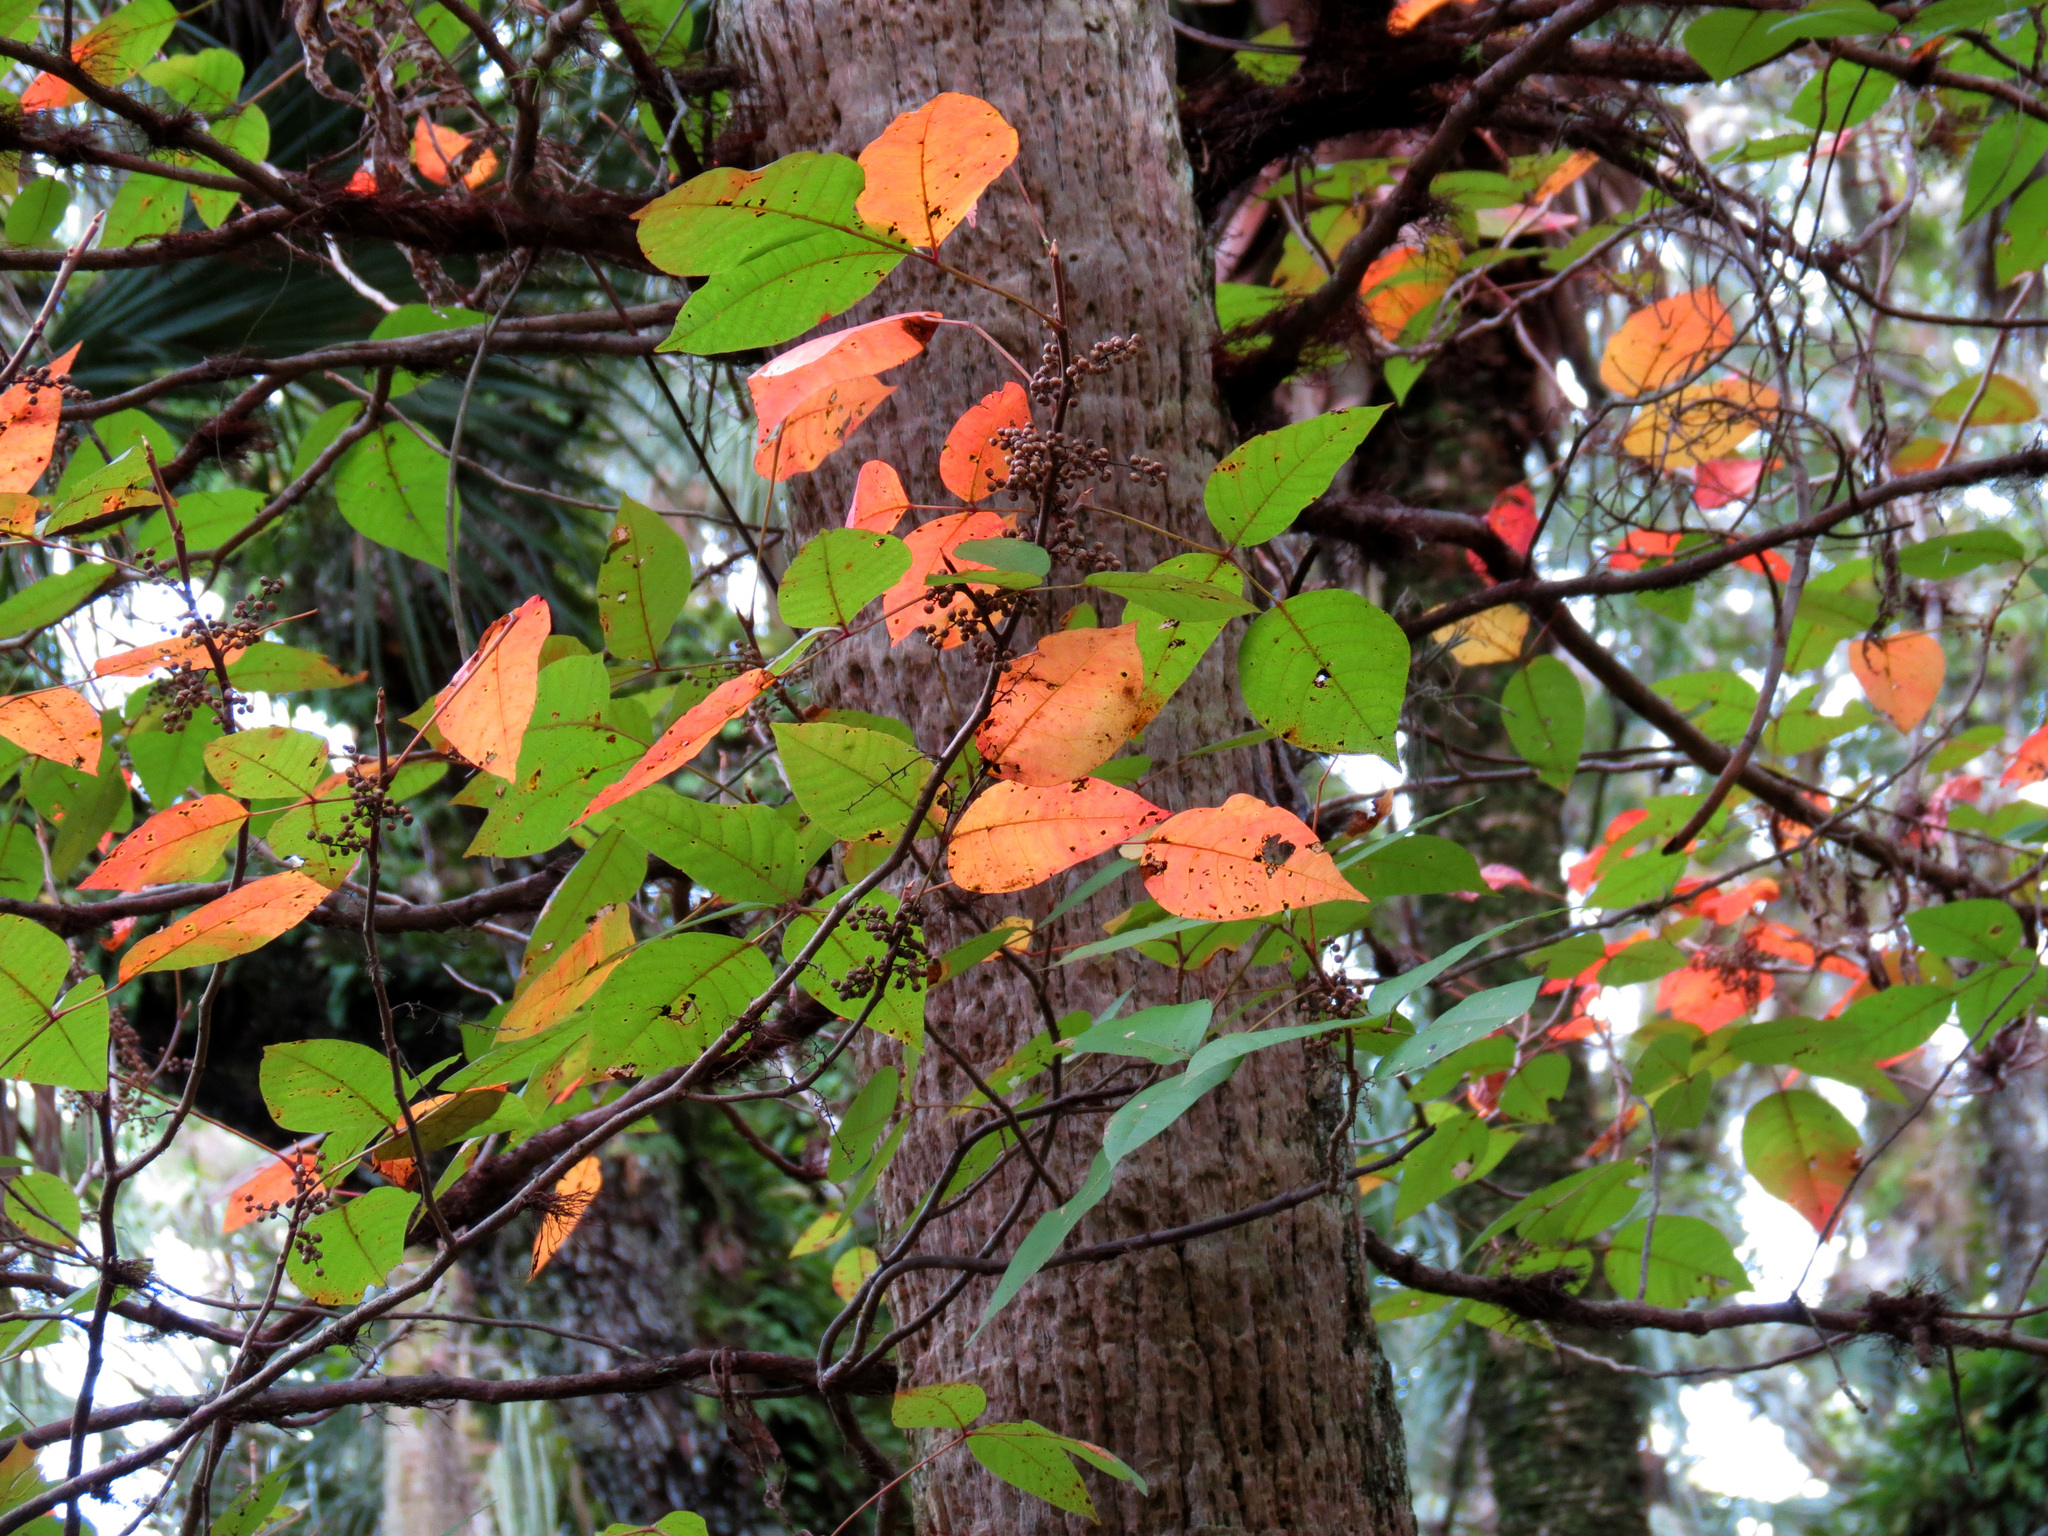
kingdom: Plantae
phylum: Tracheophyta
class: Magnoliopsida
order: Sapindales
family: Anacardiaceae
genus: Toxicodendron
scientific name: Toxicodendron radicans
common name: Poison ivy
